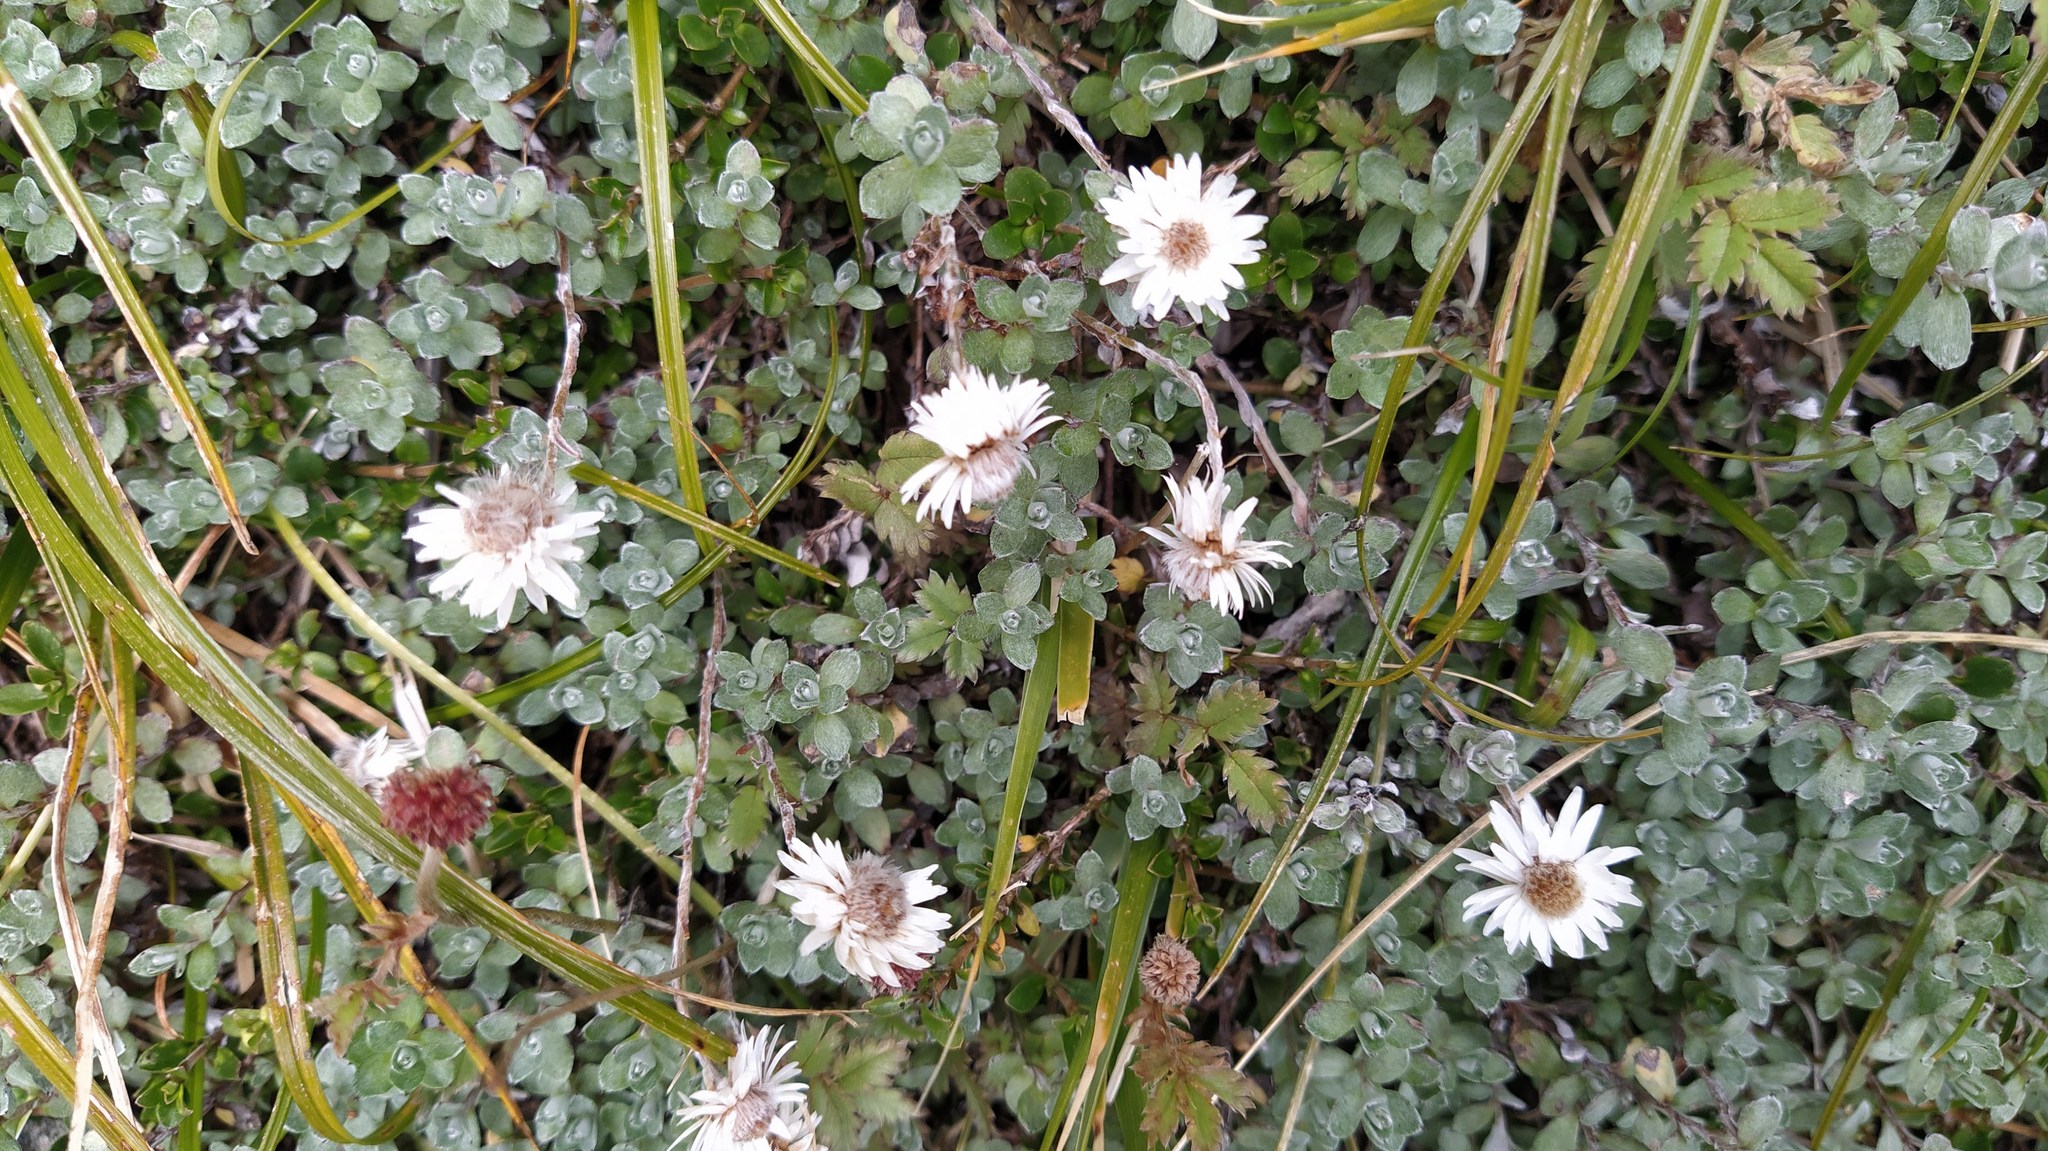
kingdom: Plantae
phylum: Tracheophyta
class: Magnoliopsida
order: Asterales
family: Asteraceae
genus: Anaphalioides
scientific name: Anaphalioides bellidioides
